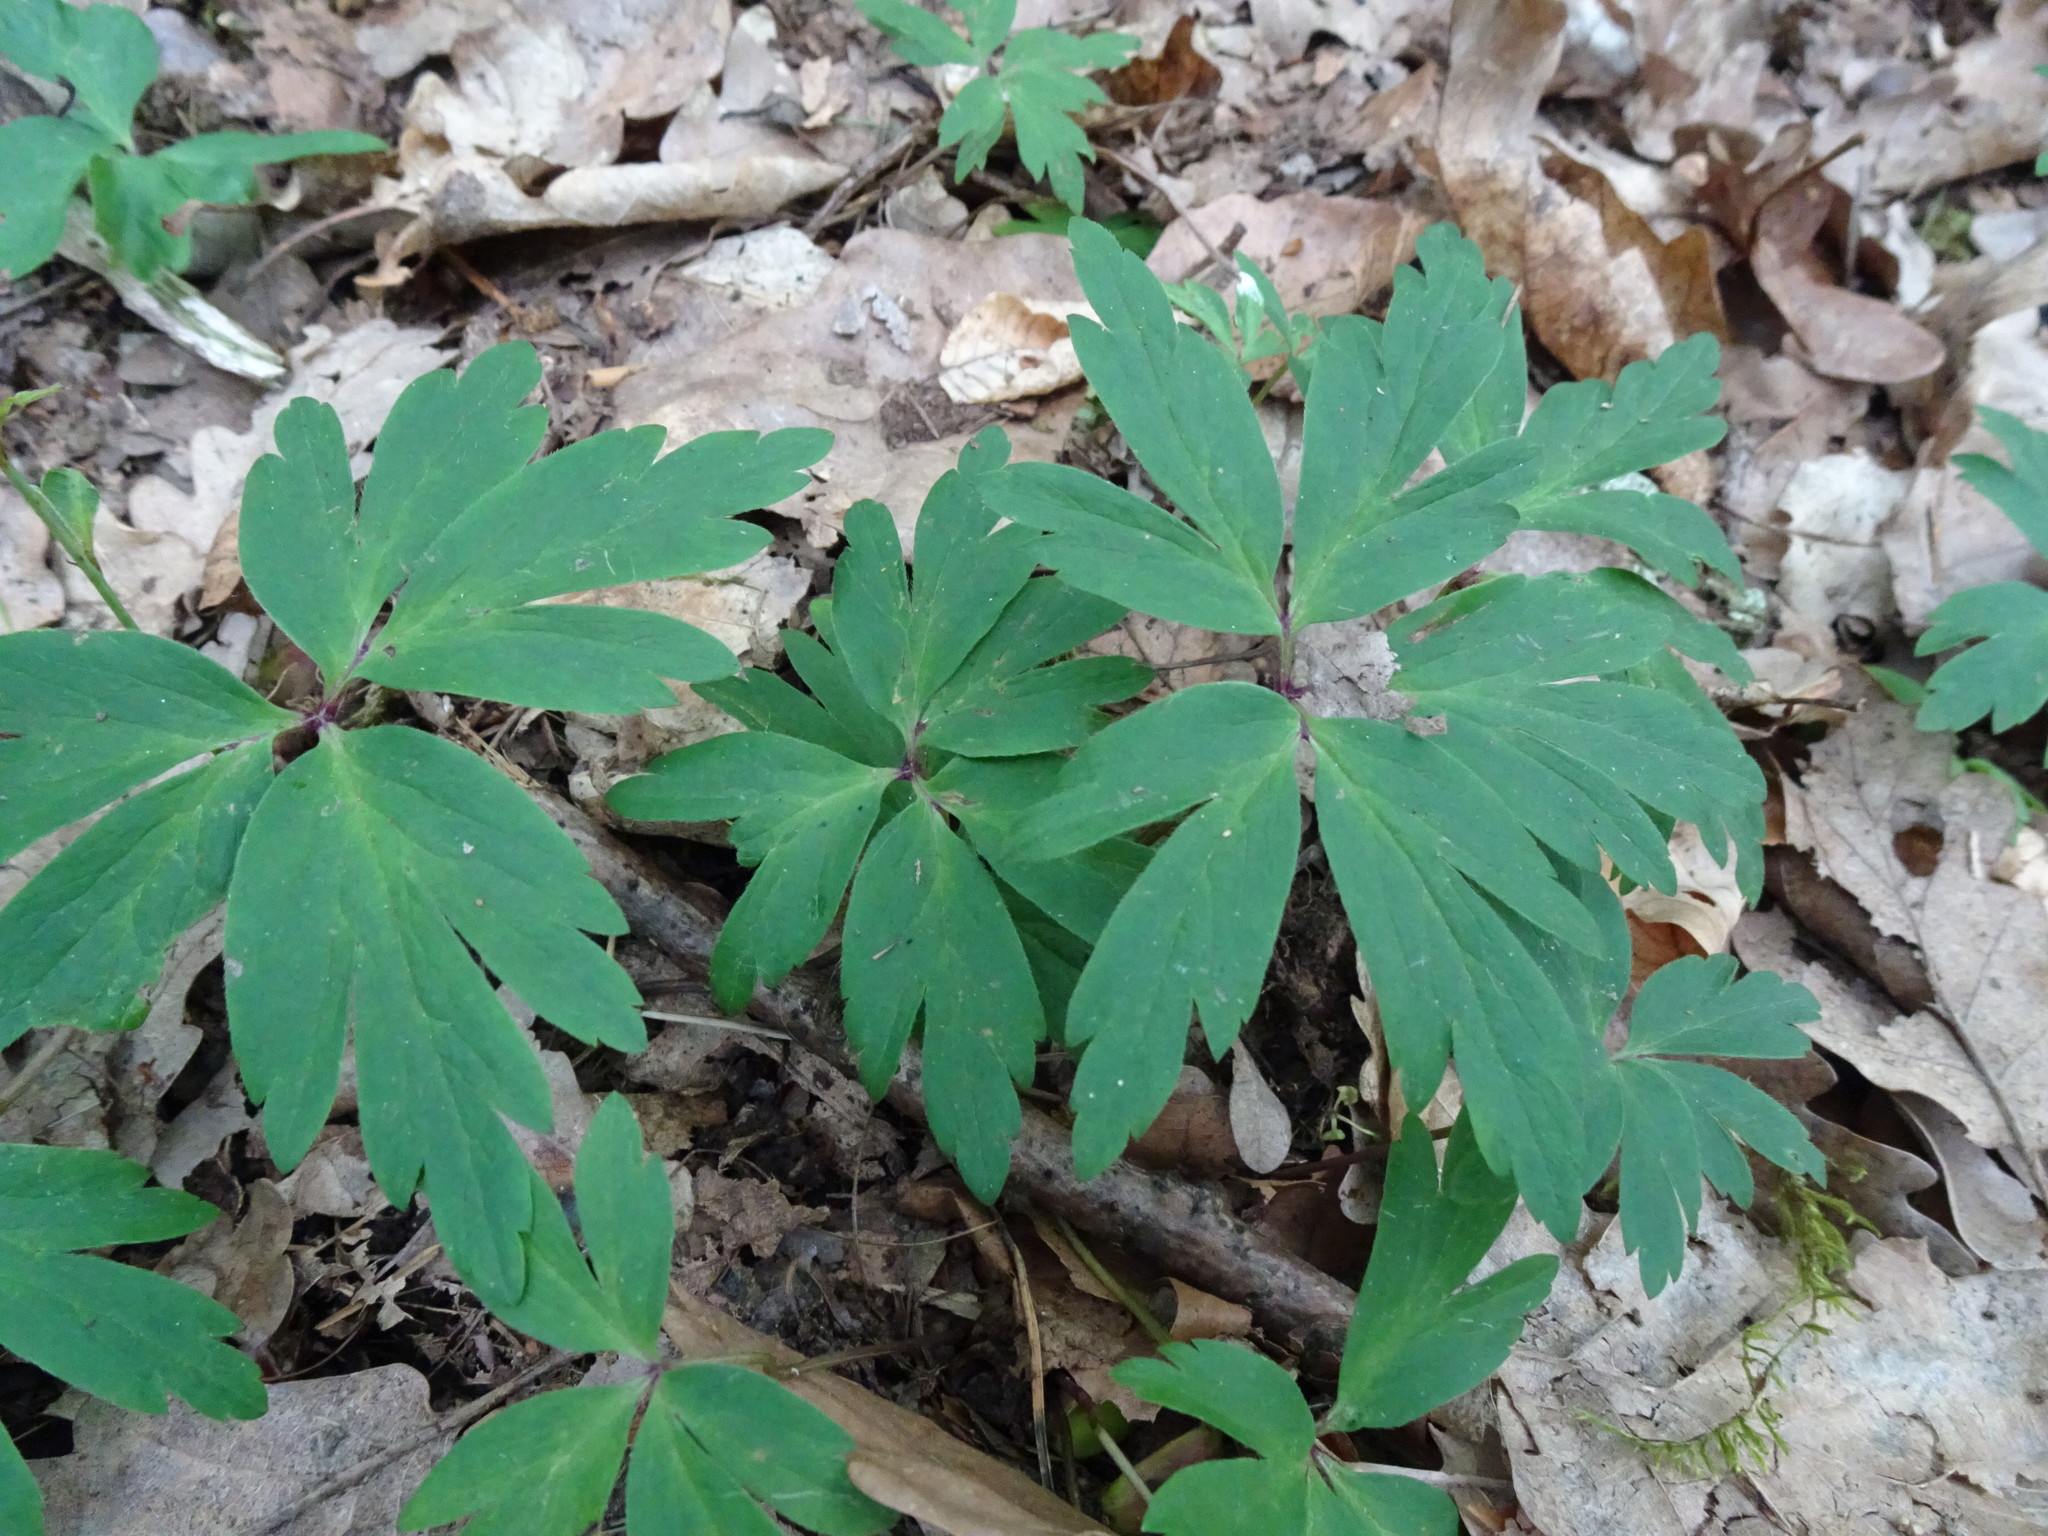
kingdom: Plantae
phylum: Tracheophyta
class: Magnoliopsida
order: Ranunculales
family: Ranunculaceae
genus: Anemone
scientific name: Anemone nemorosa
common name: Wood anemone
